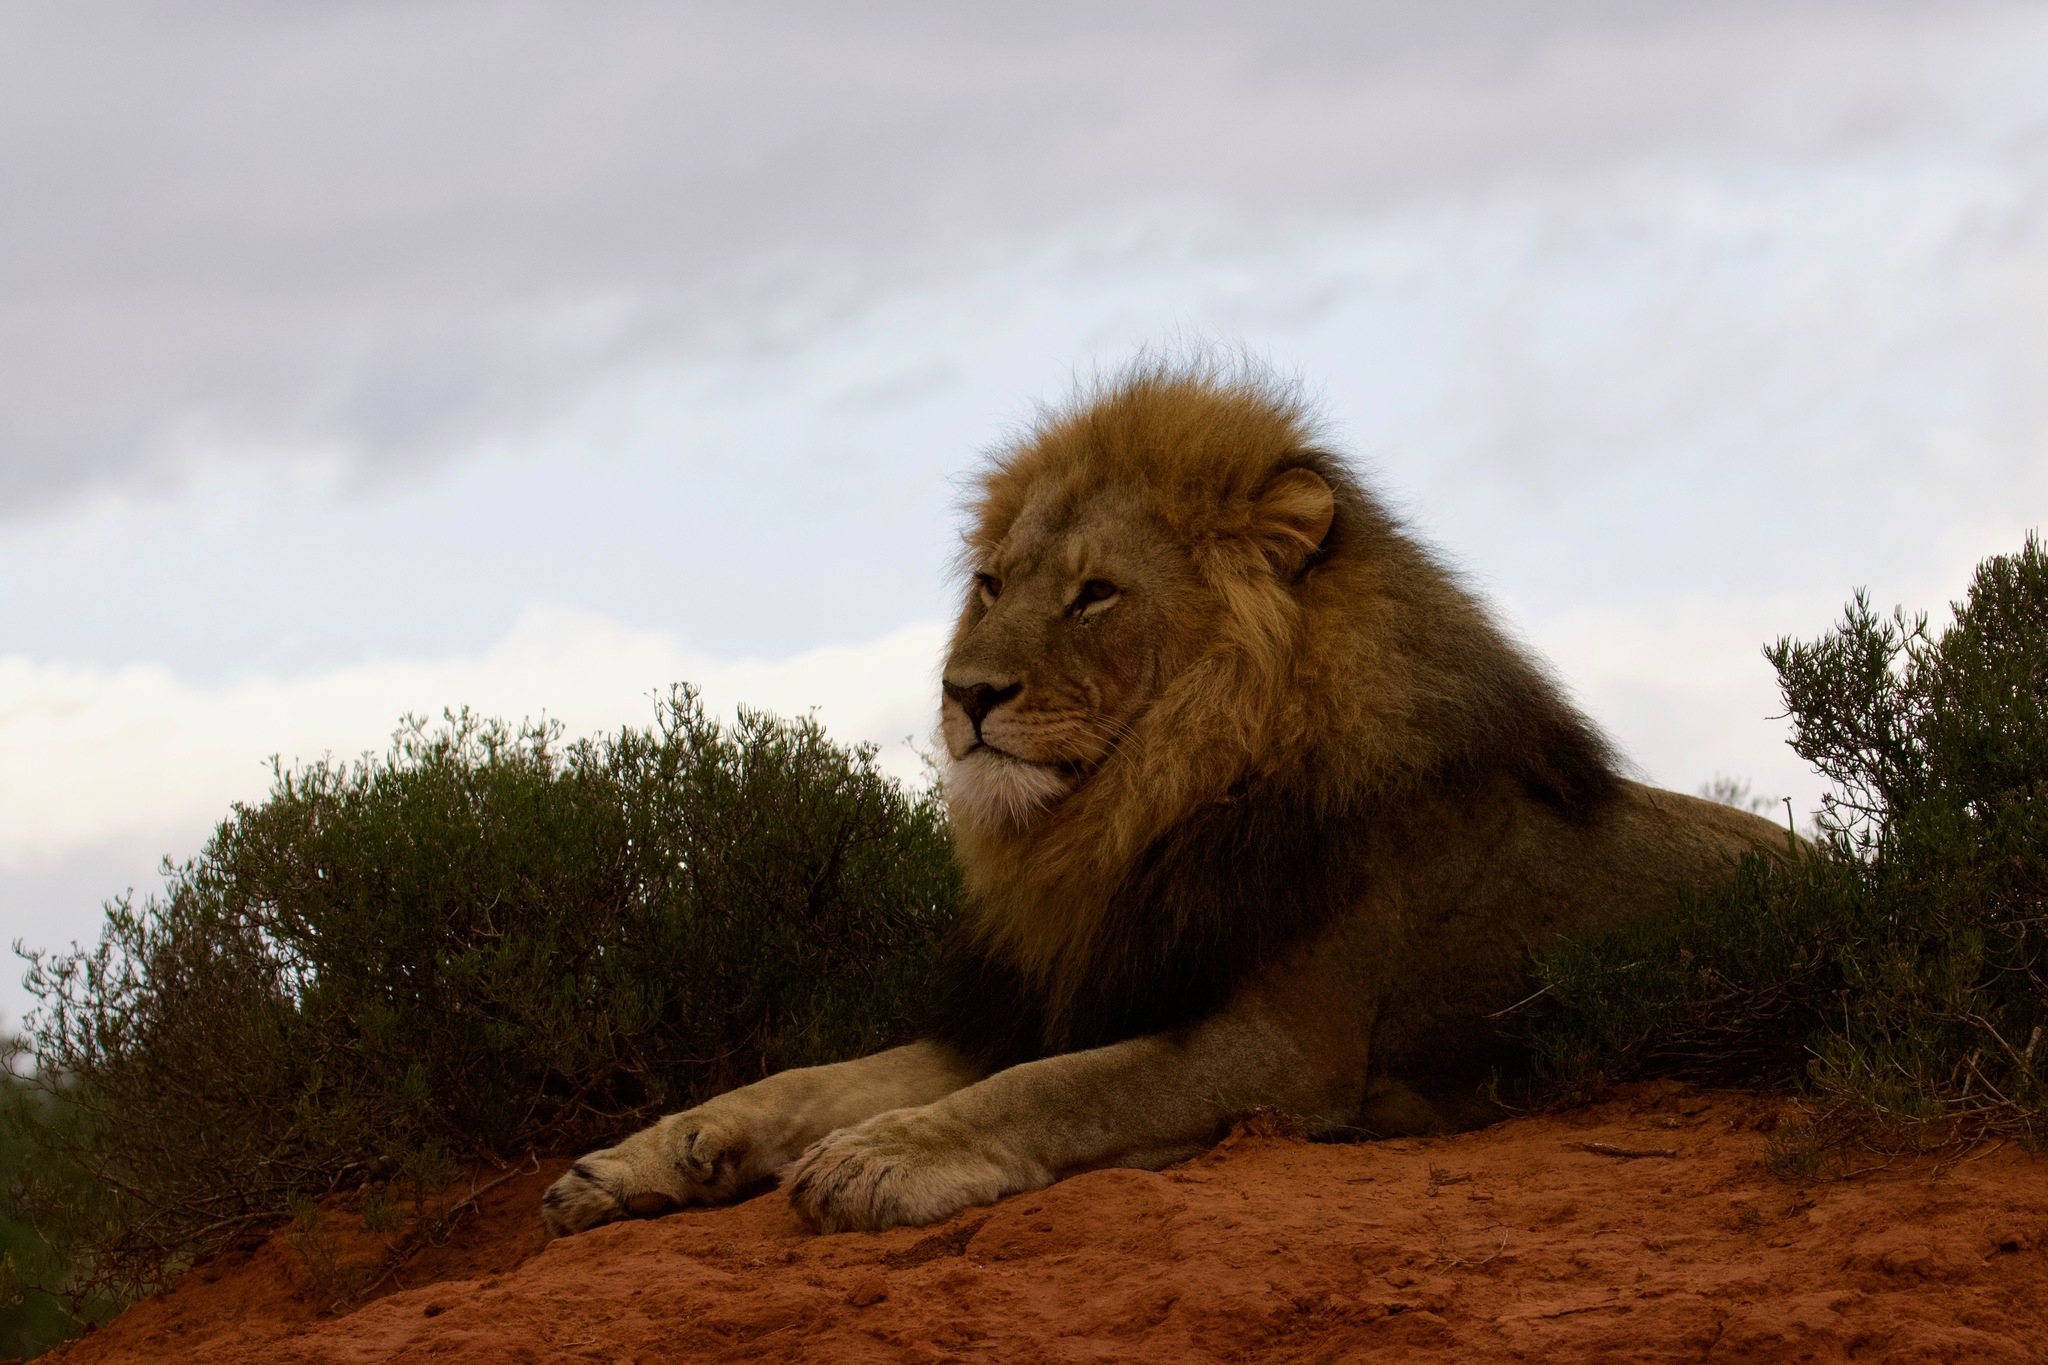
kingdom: Animalia
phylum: Chordata
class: Mammalia
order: Carnivora
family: Felidae
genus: Panthera
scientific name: Panthera leo
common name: Lion
